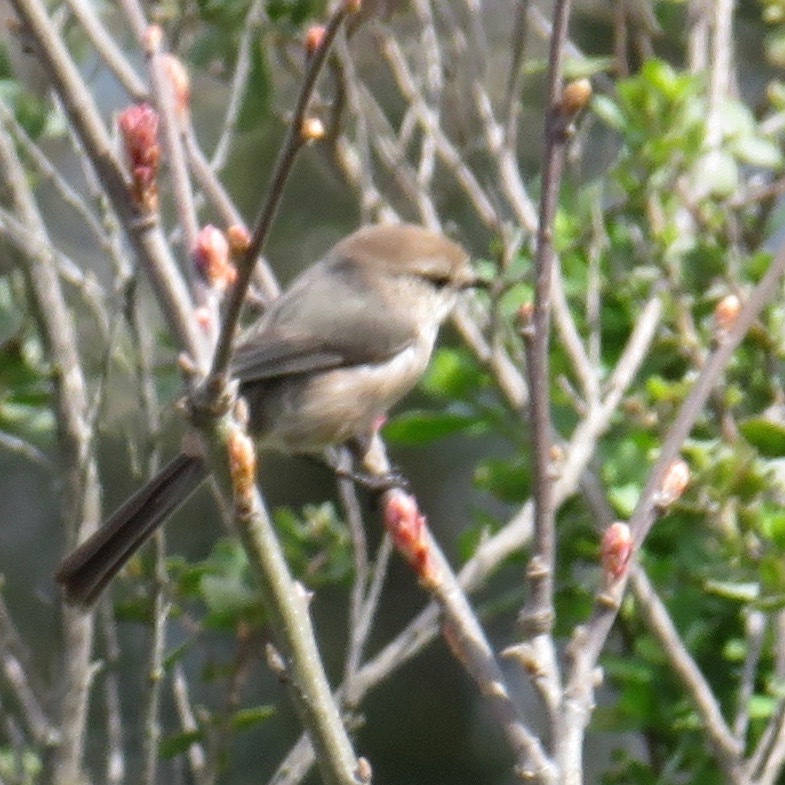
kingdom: Animalia
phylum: Chordata
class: Aves
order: Passeriformes
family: Aegithalidae
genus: Psaltriparus
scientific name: Psaltriparus minimus
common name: American bushtit
